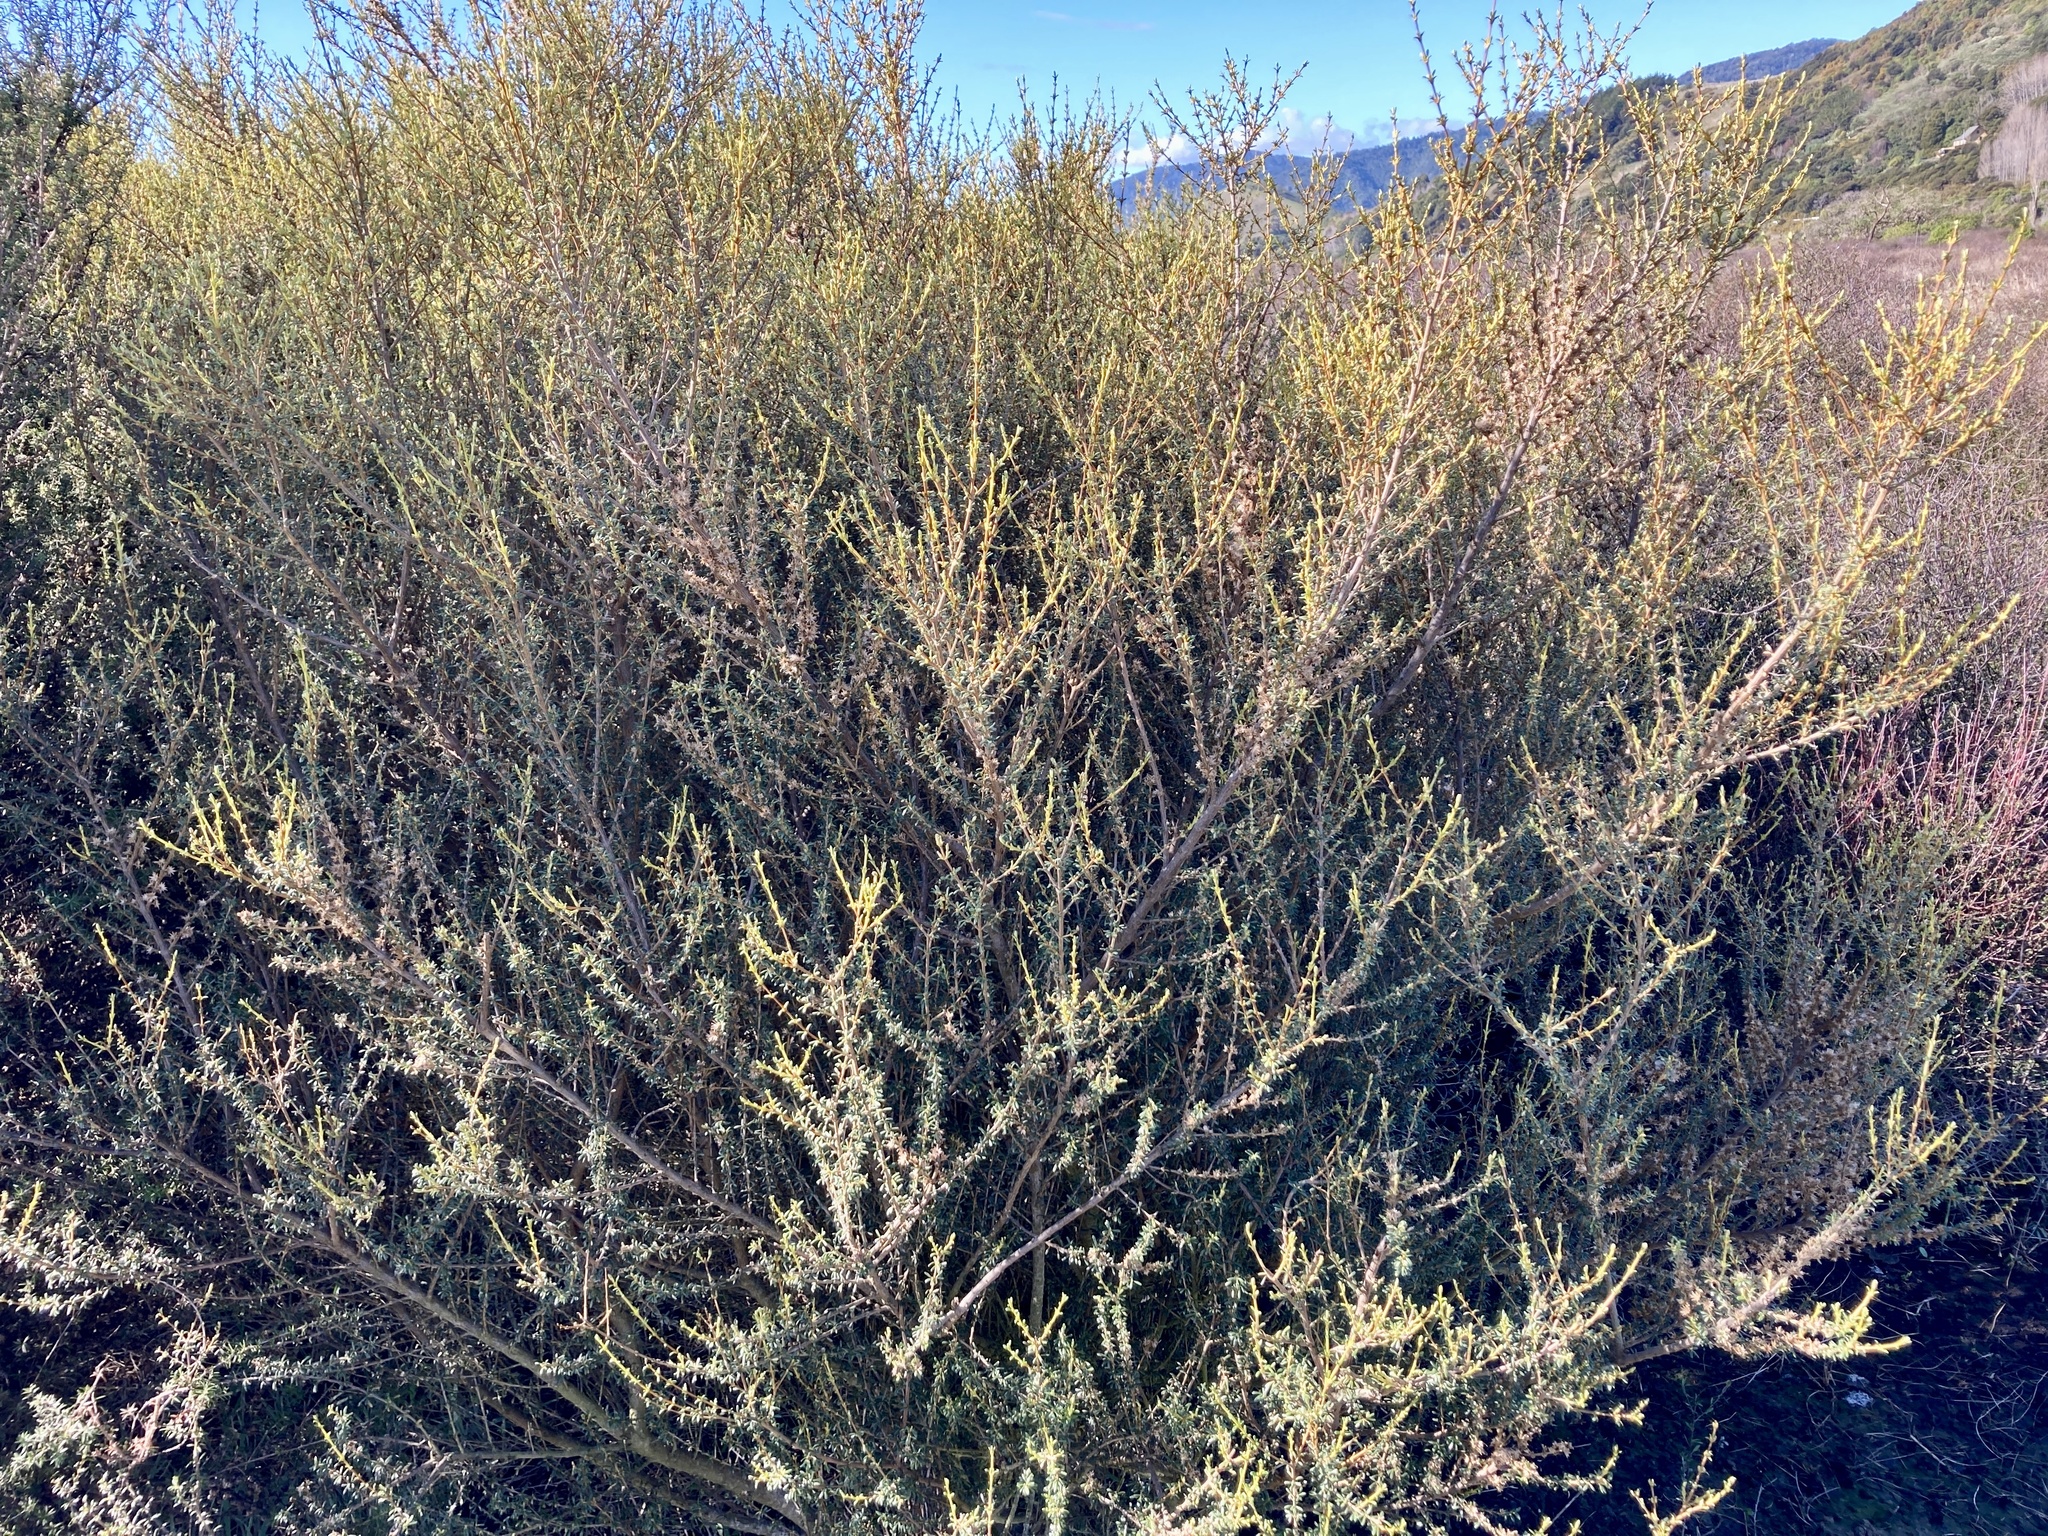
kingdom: Plantae
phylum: Tracheophyta
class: Magnoliopsida
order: Asterales
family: Asteraceae
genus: Olearia
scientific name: Olearia solandri
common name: Coastal daisybush
